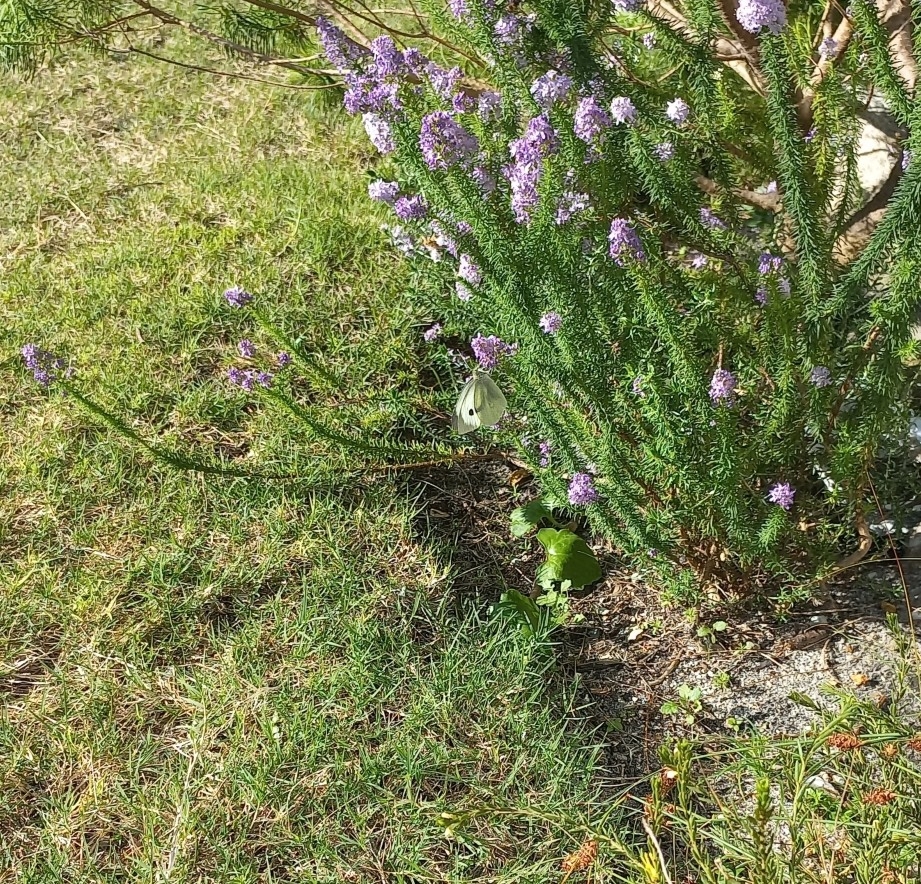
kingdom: Animalia
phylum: Arthropoda
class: Insecta
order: Lepidoptera
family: Pieridae
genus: Pieris
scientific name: Pieris brassicae
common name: Large white
